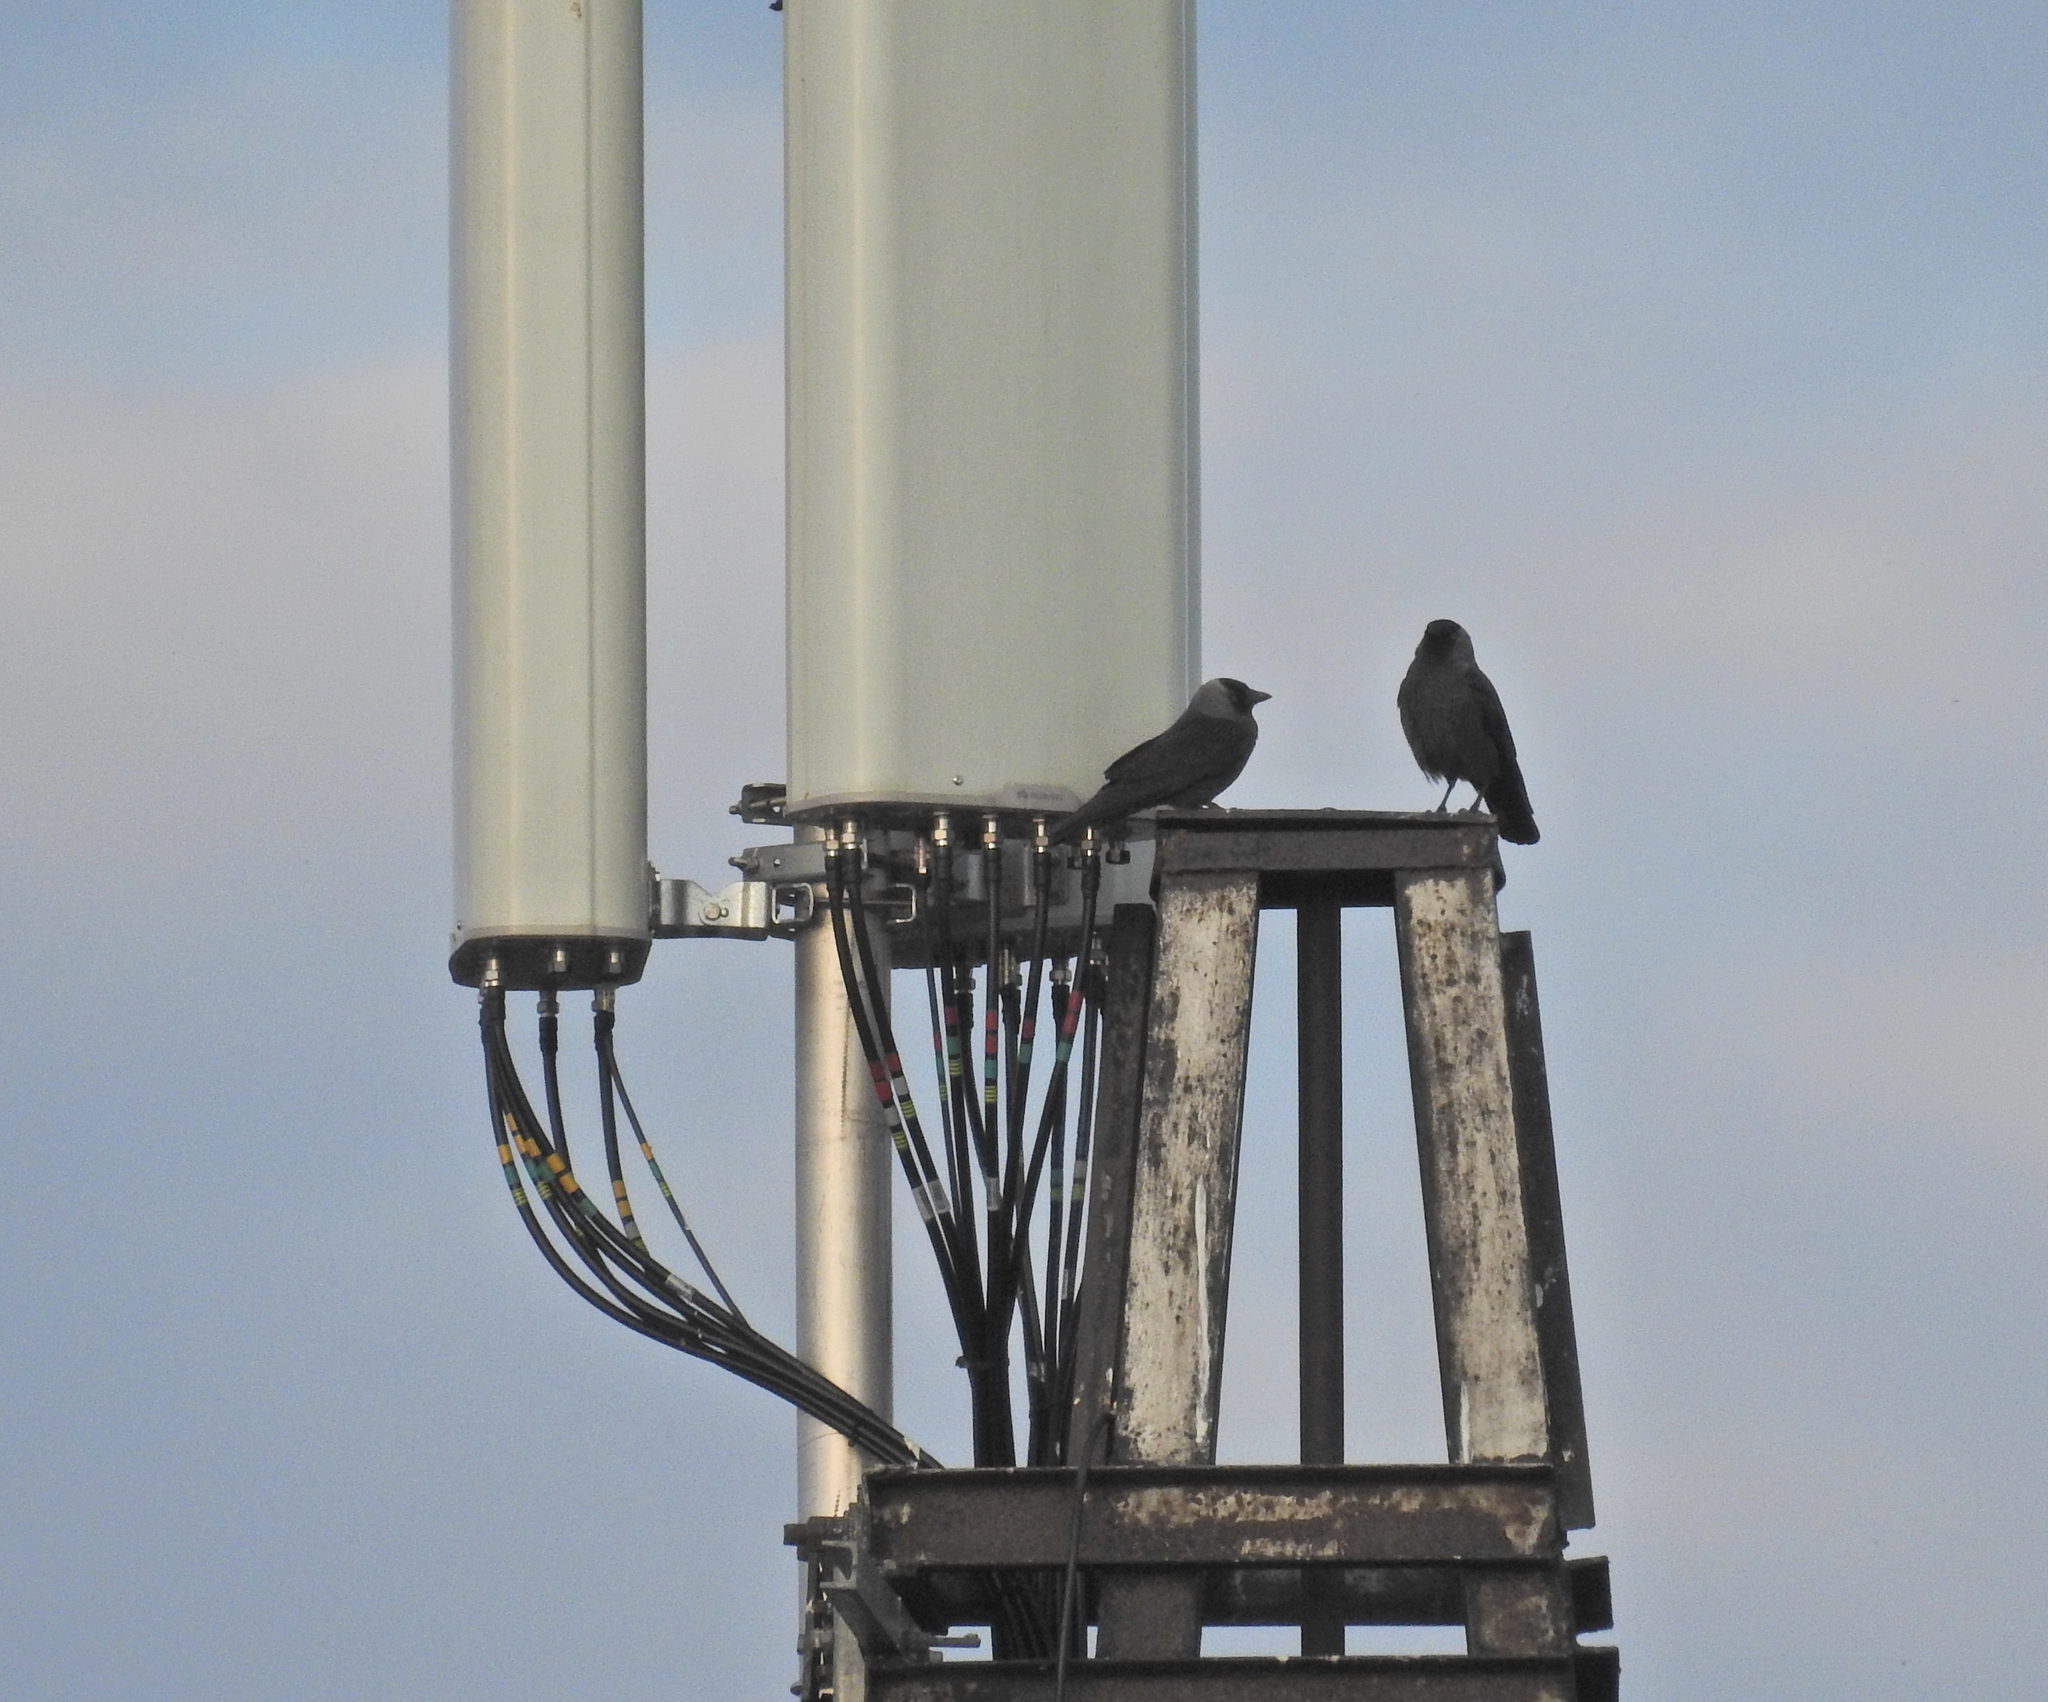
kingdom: Animalia
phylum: Chordata
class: Aves
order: Passeriformes
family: Corvidae
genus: Coloeus
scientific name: Coloeus monedula
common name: Western jackdaw
